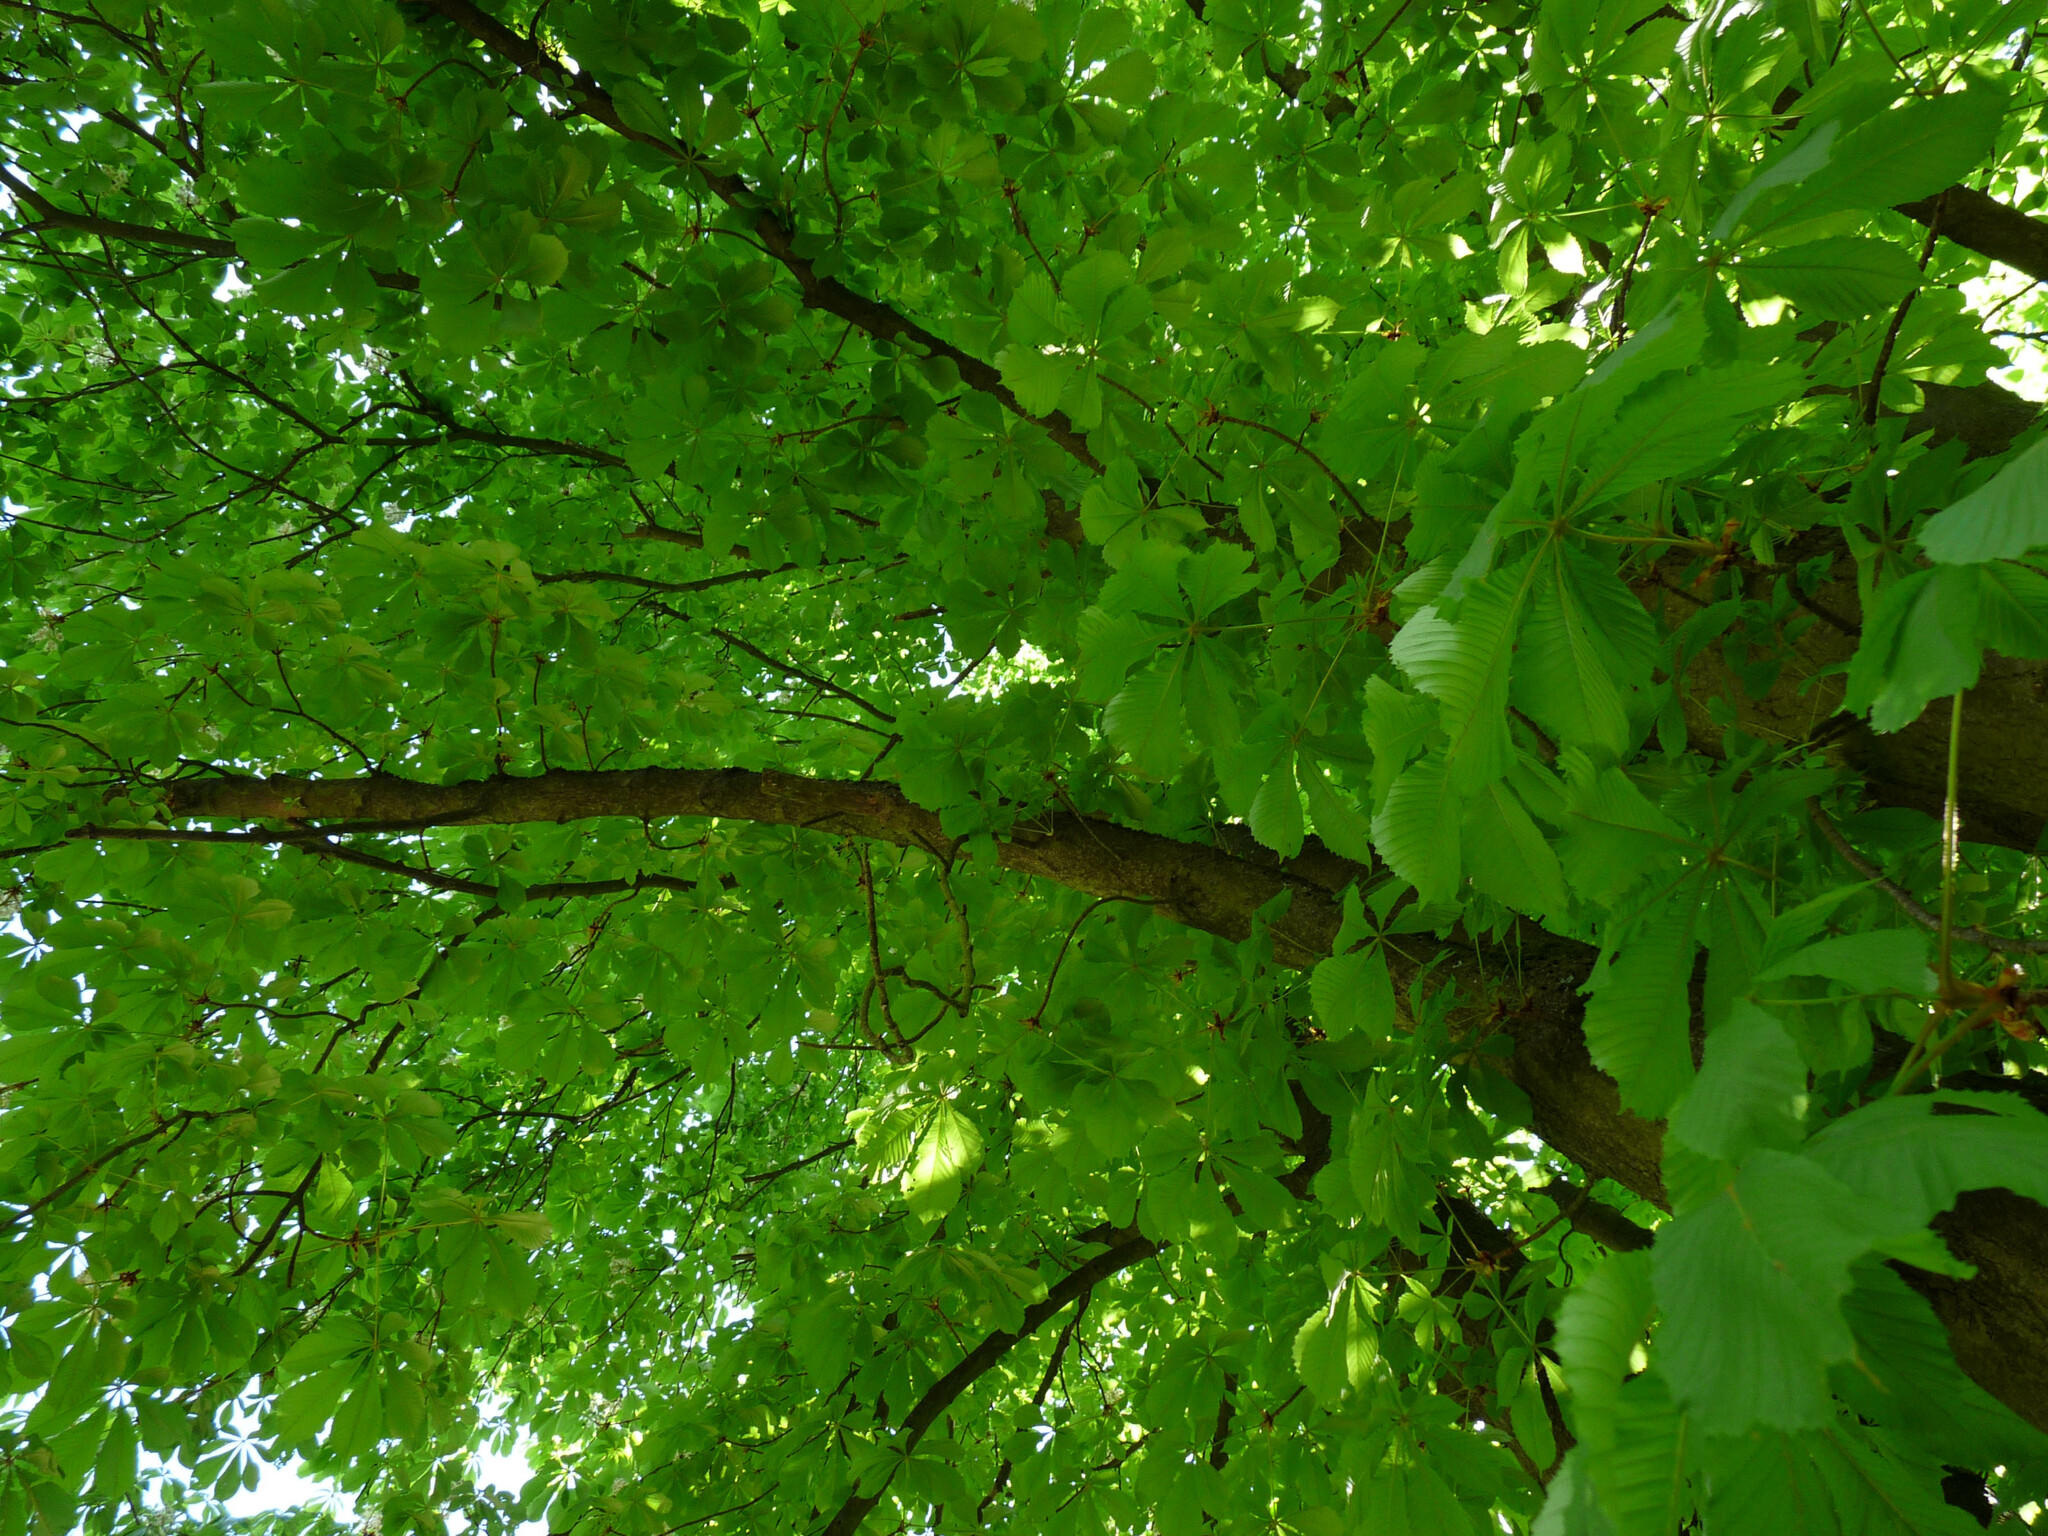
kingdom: Plantae
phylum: Tracheophyta
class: Magnoliopsida
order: Sapindales
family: Sapindaceae
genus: Aesculus
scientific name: Aesculus hippocastanum
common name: Horse-chestnut
